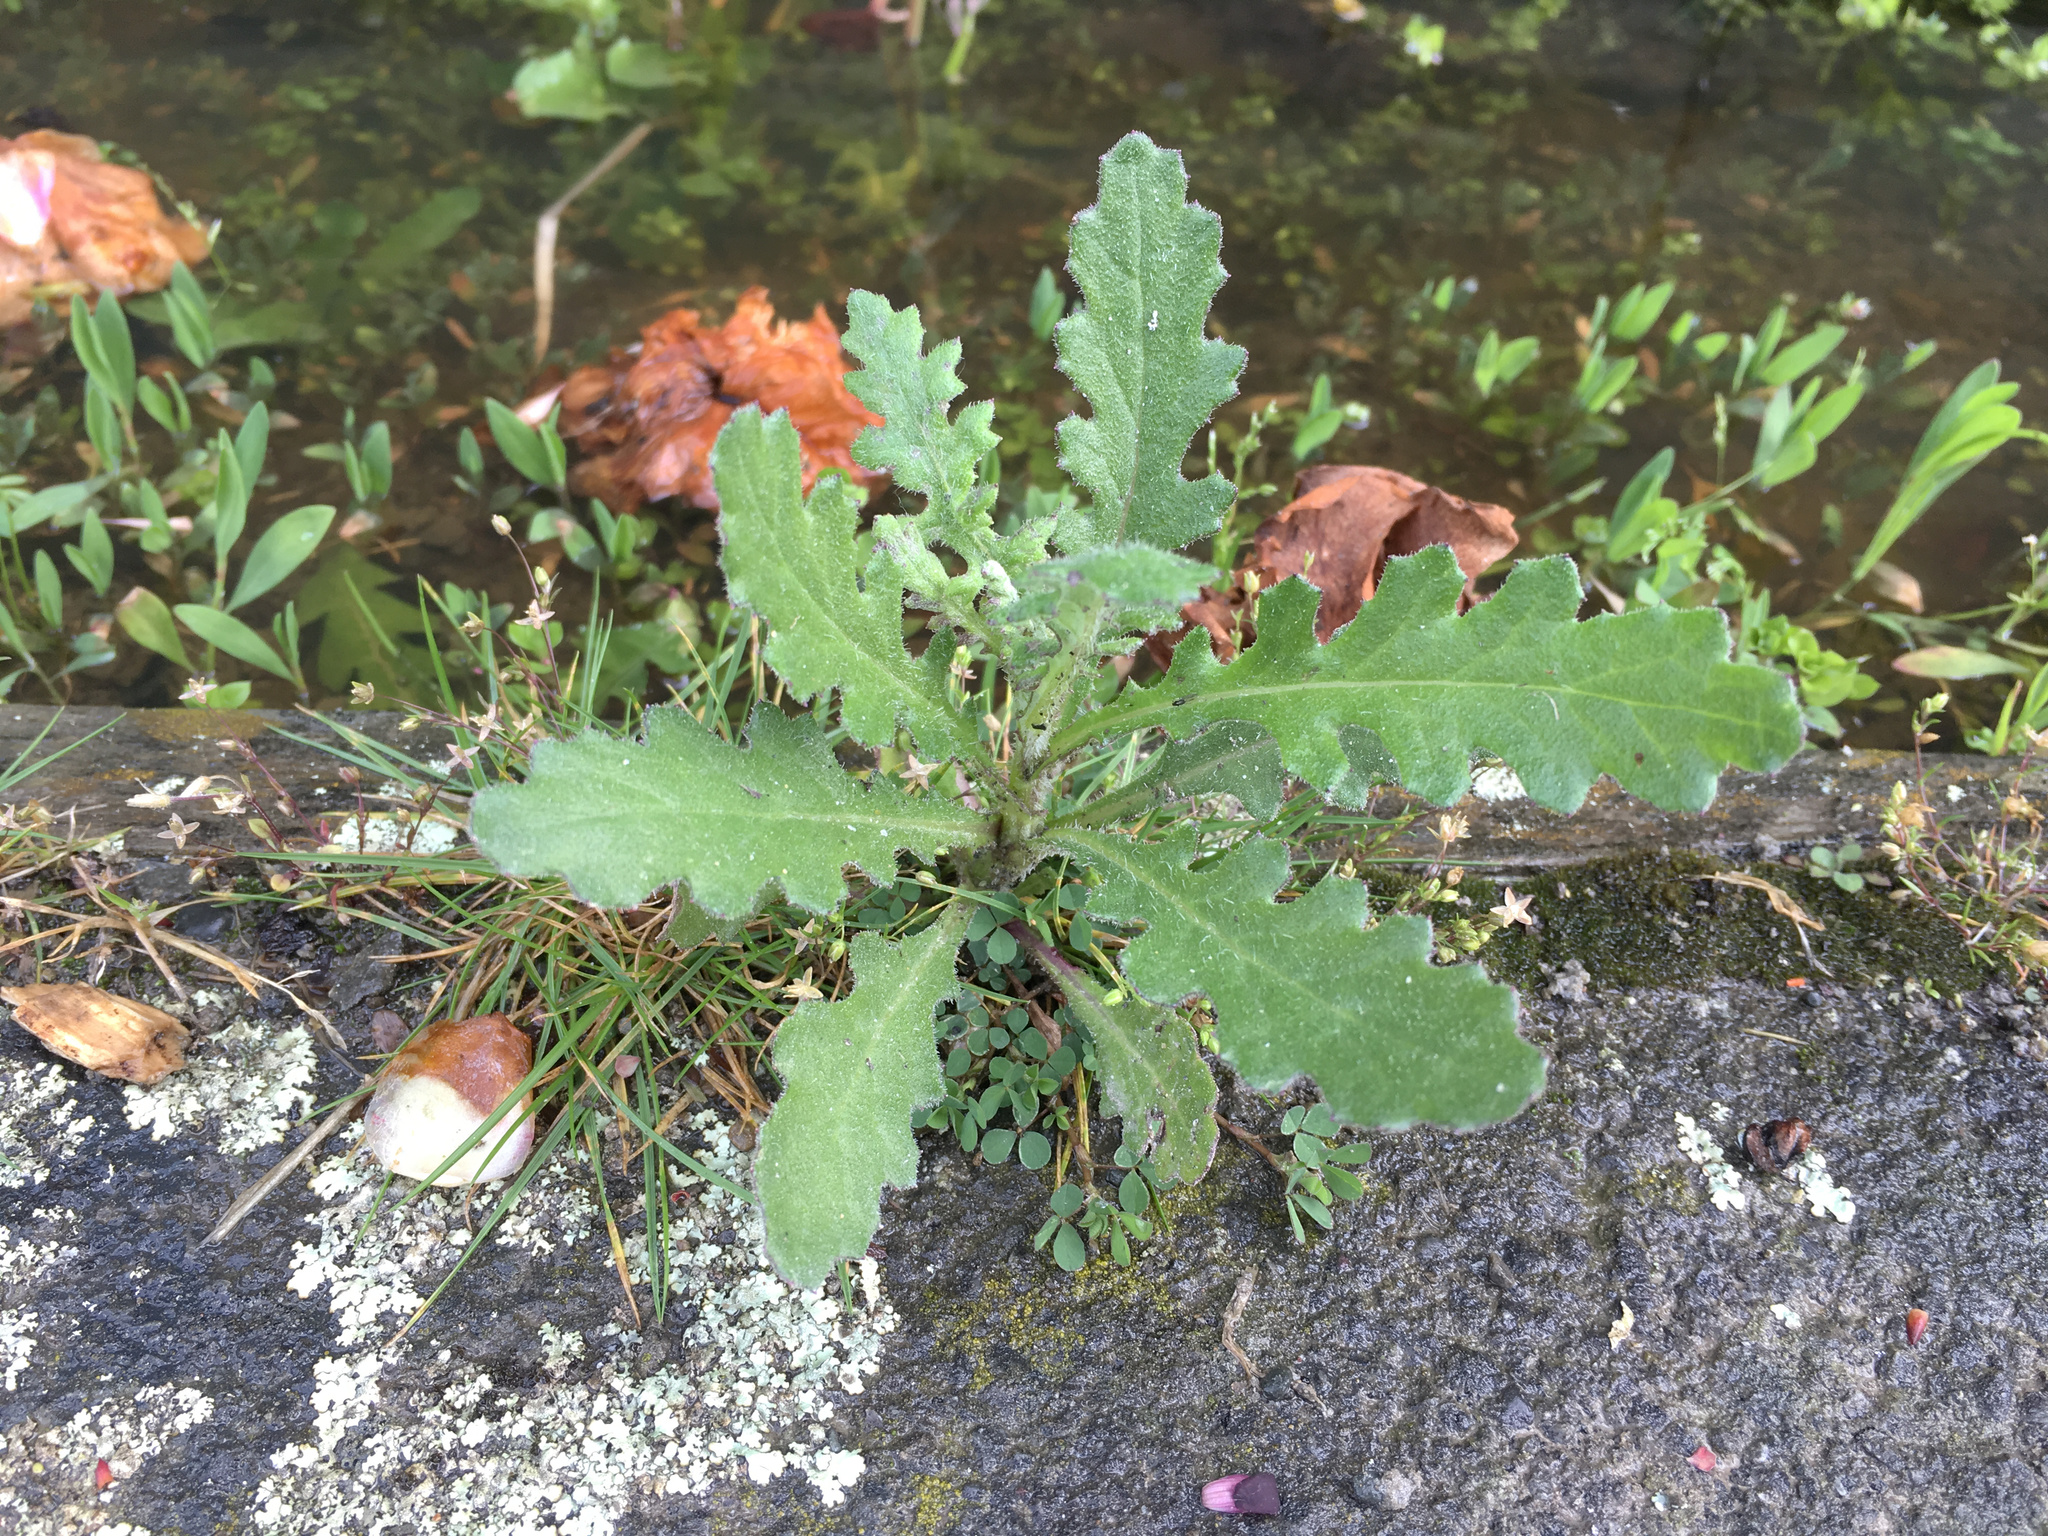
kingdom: Plantae
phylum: Tracheophyta
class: Magnoliopsida
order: Asterales
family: Asteraceae
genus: Senecio
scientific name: Senecio glomeratus
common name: Cutleaf burnweed
